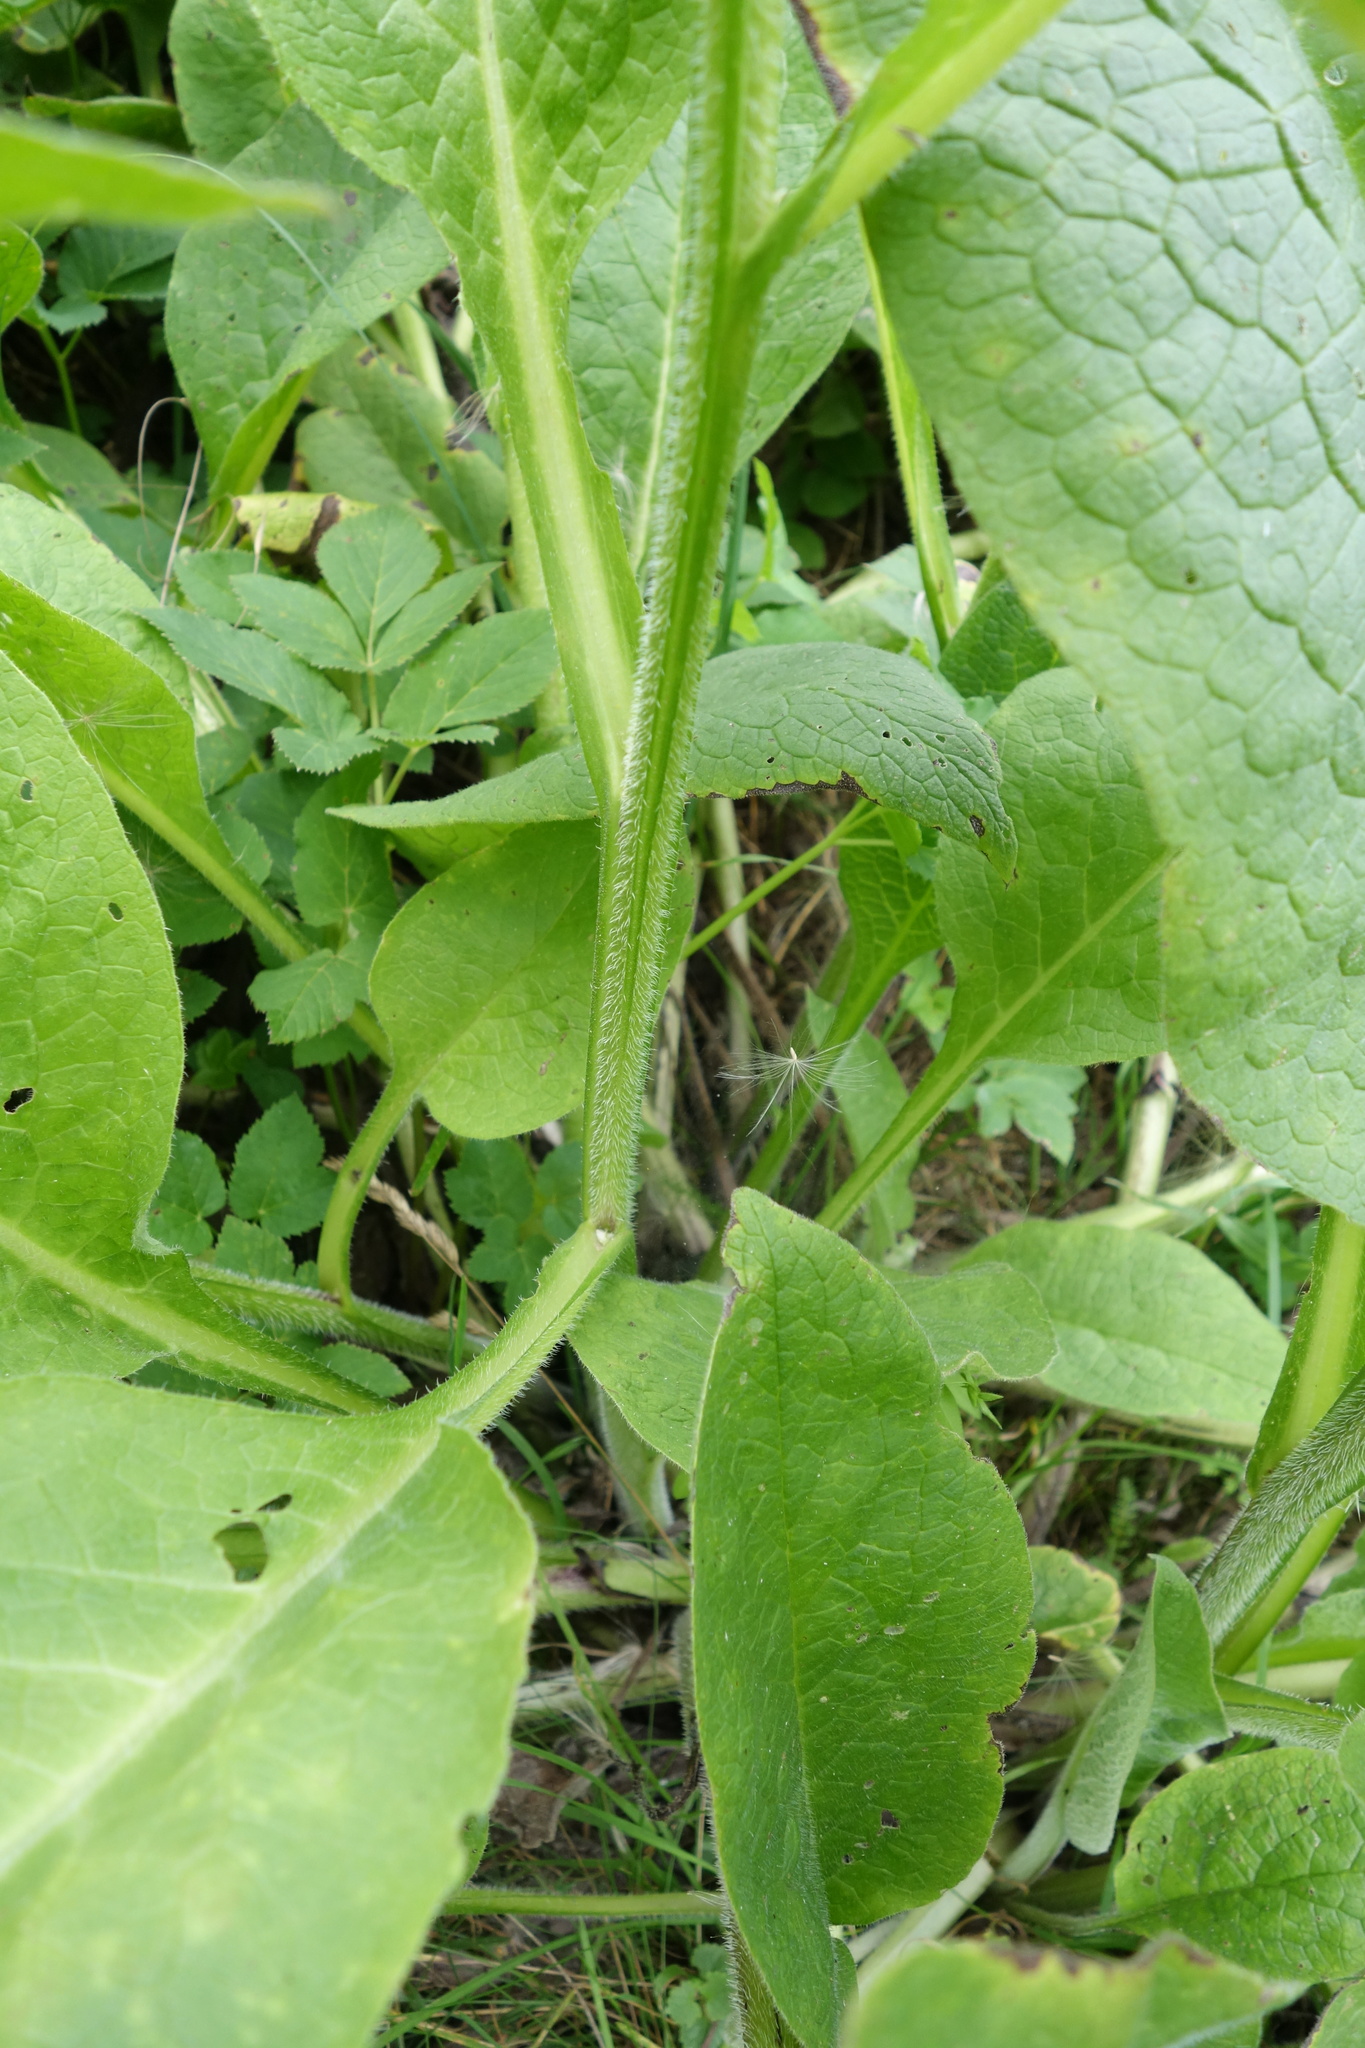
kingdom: Plantae
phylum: Tracheophyta
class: Magnoliopsida
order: Boraginales
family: Boraginaceae
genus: Symphytum
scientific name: Symphytum officinale
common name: Common comfrey
